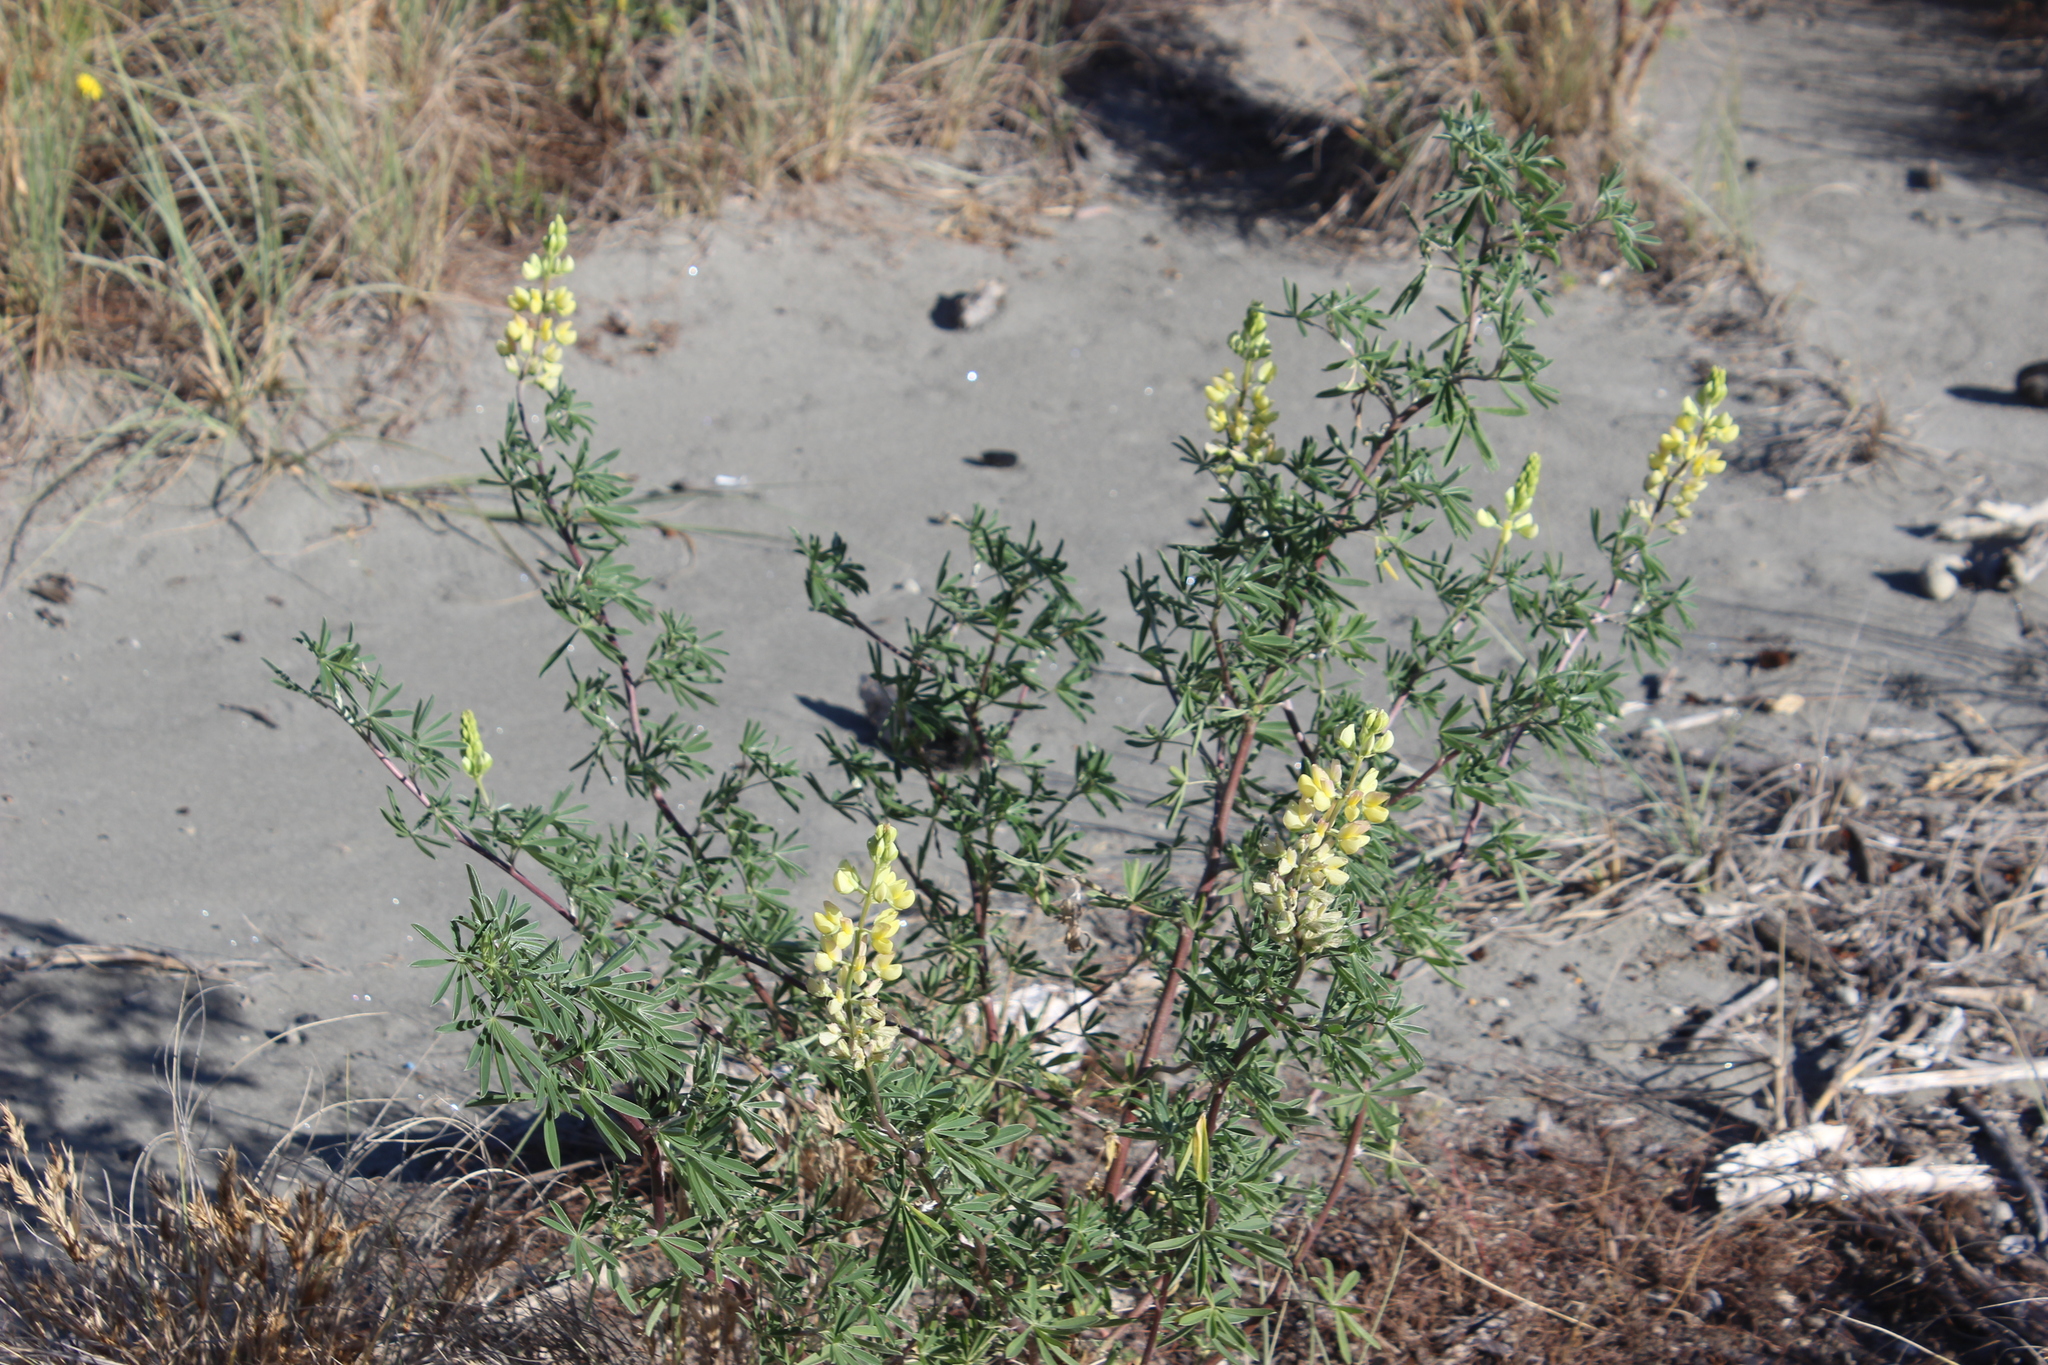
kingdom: Plantae
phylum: Tracheophyta
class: Magnoliopsida
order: Fabales
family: Fabaceae
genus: Lupinus
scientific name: Lupinus arboreus
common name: Yellow bush lupine
